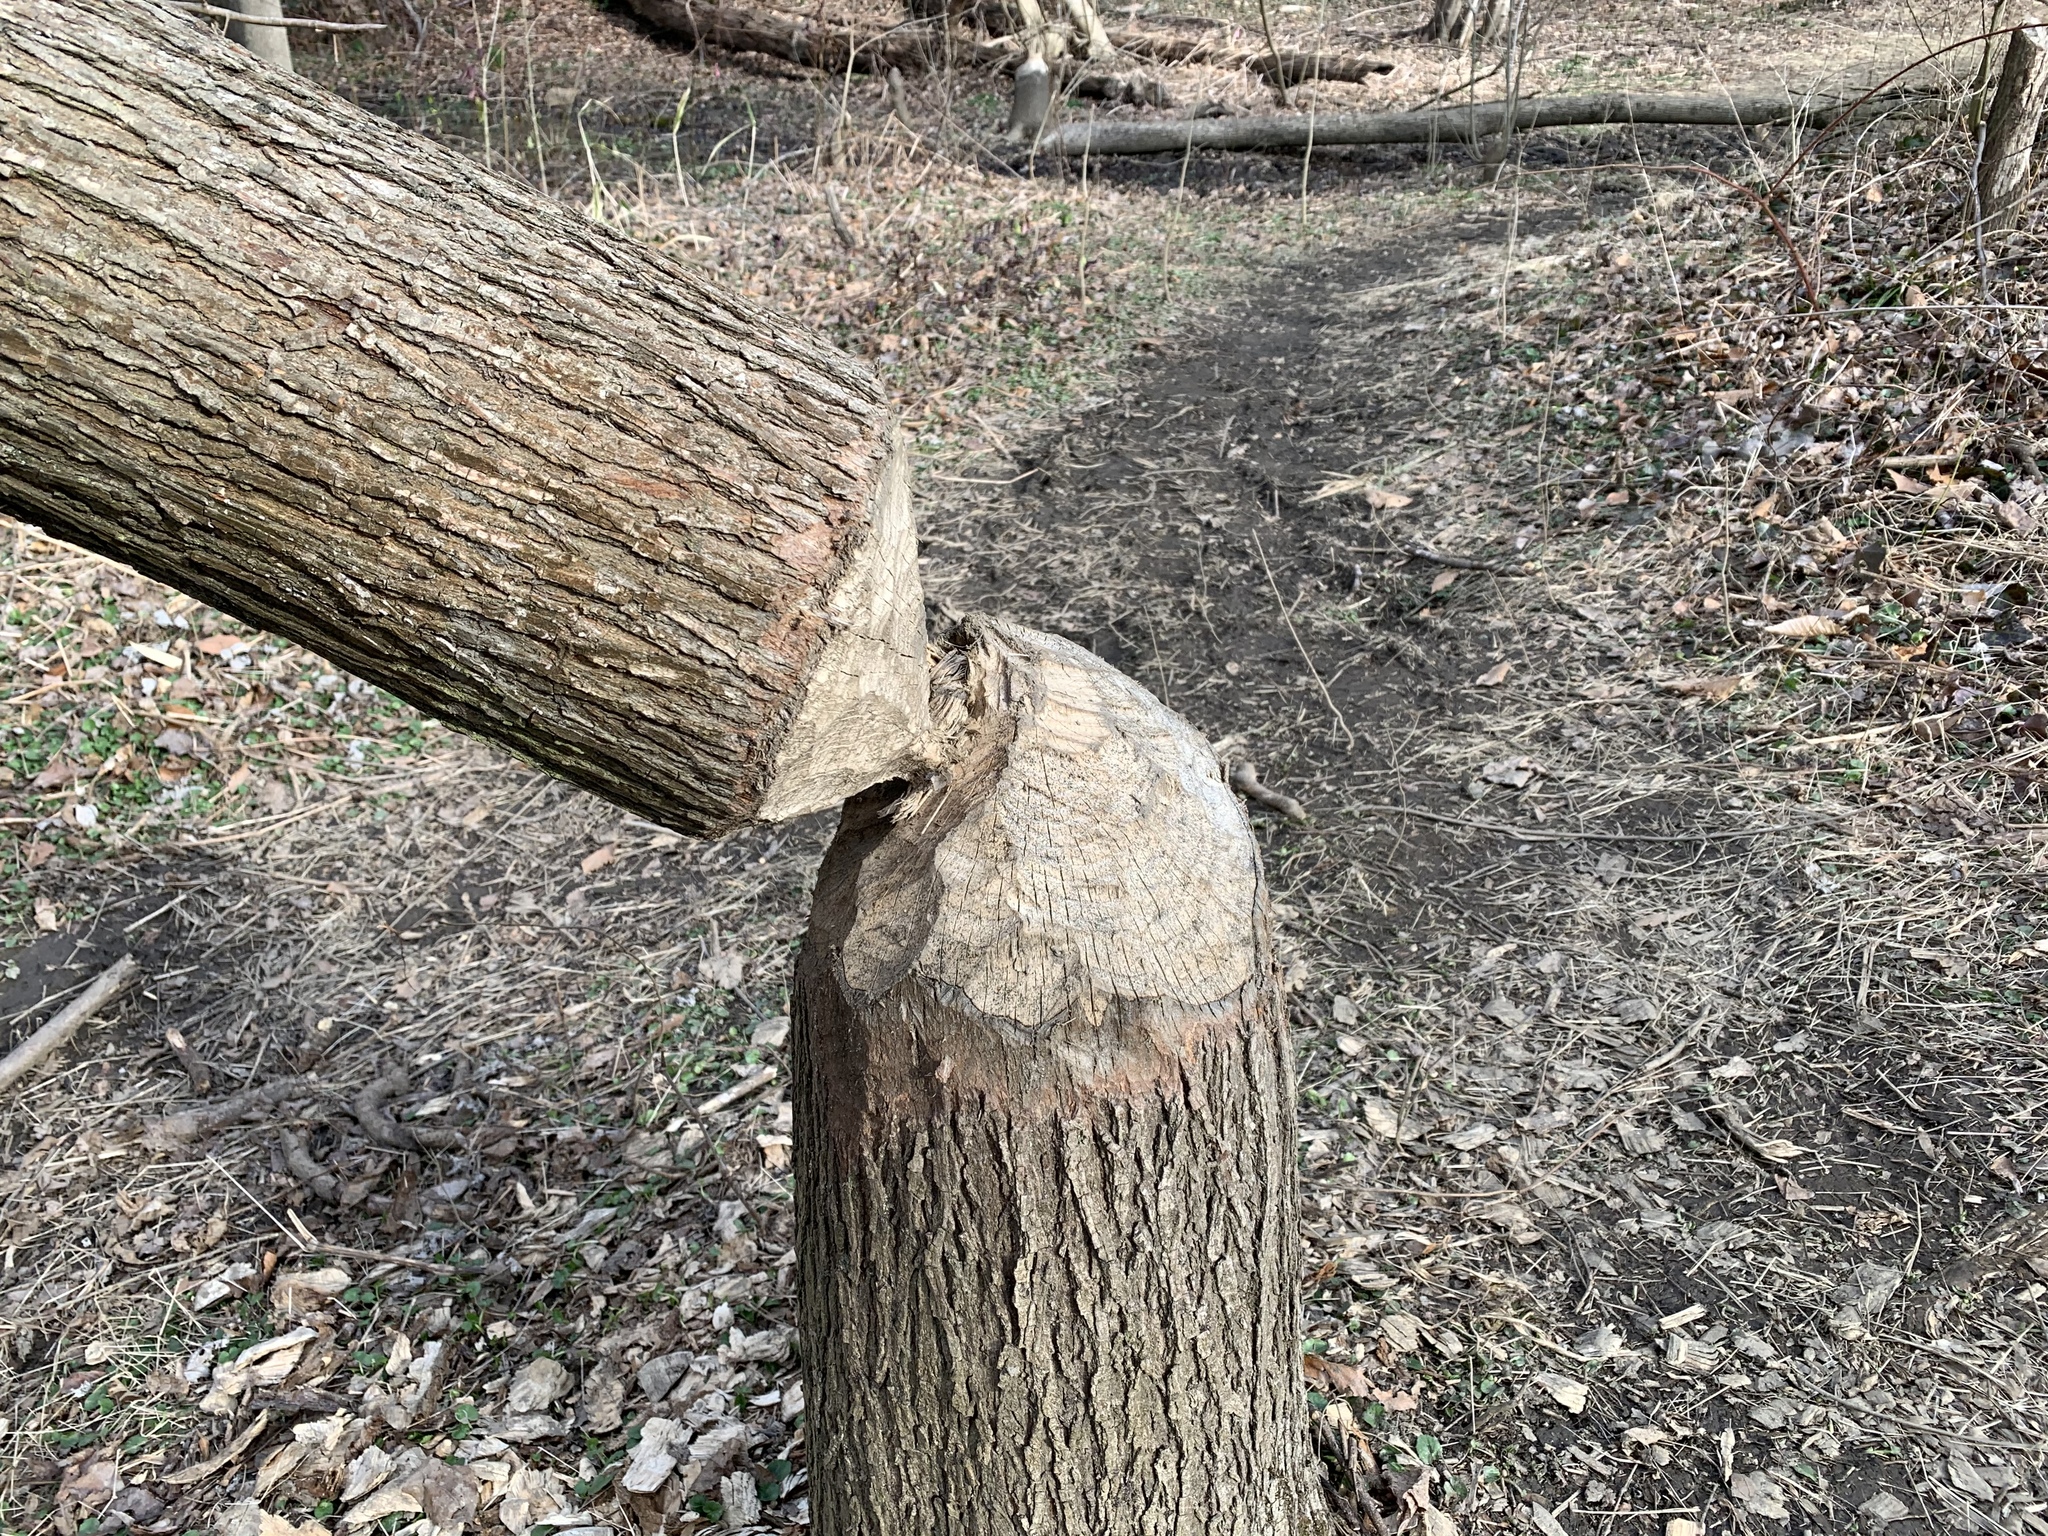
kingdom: Animalia
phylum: Chordata
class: Mammalia
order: Rodentia
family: Castoridae
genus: Castor
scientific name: Castor canadensis
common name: American beaver
